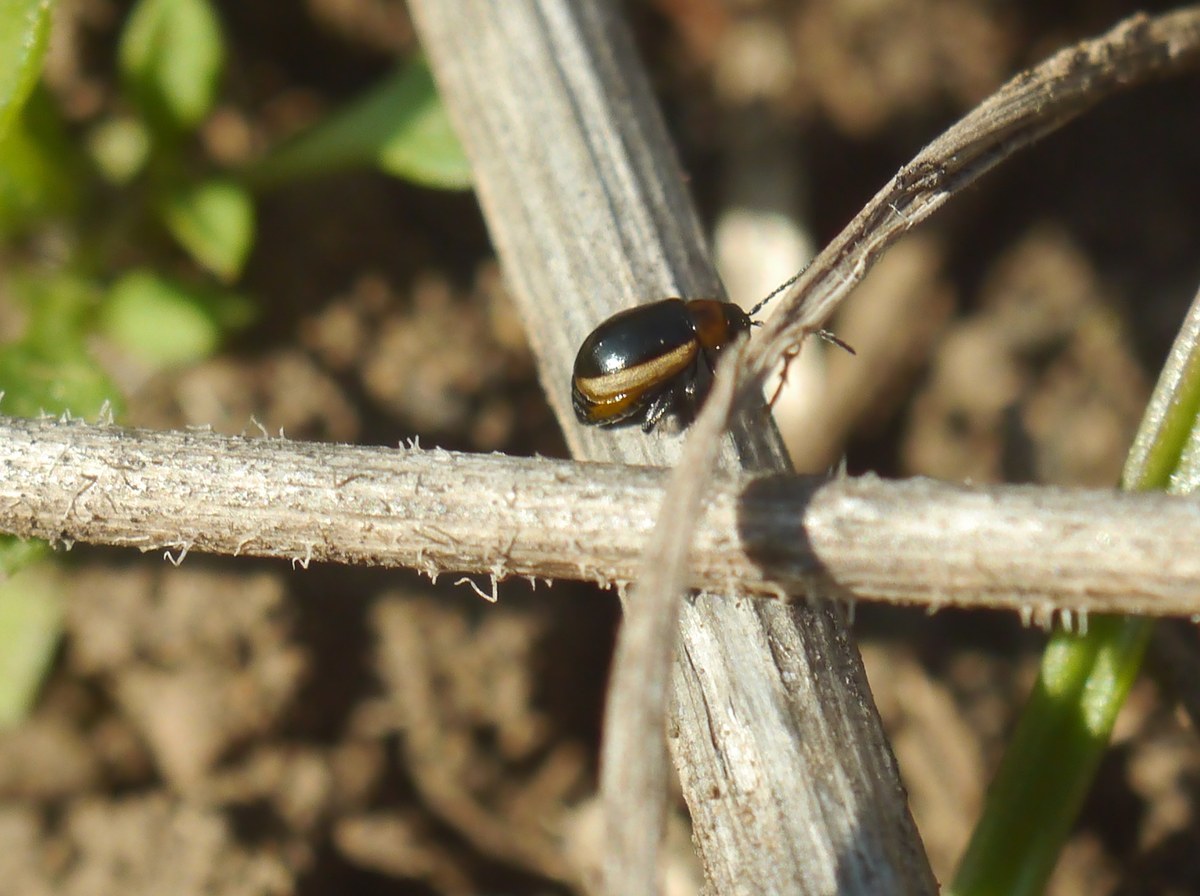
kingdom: Animalia
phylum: Arthropoda
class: Insecta
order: Coleoptera
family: Chrysomelidae
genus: Longitarsus
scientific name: Longitarsus dorsalis
